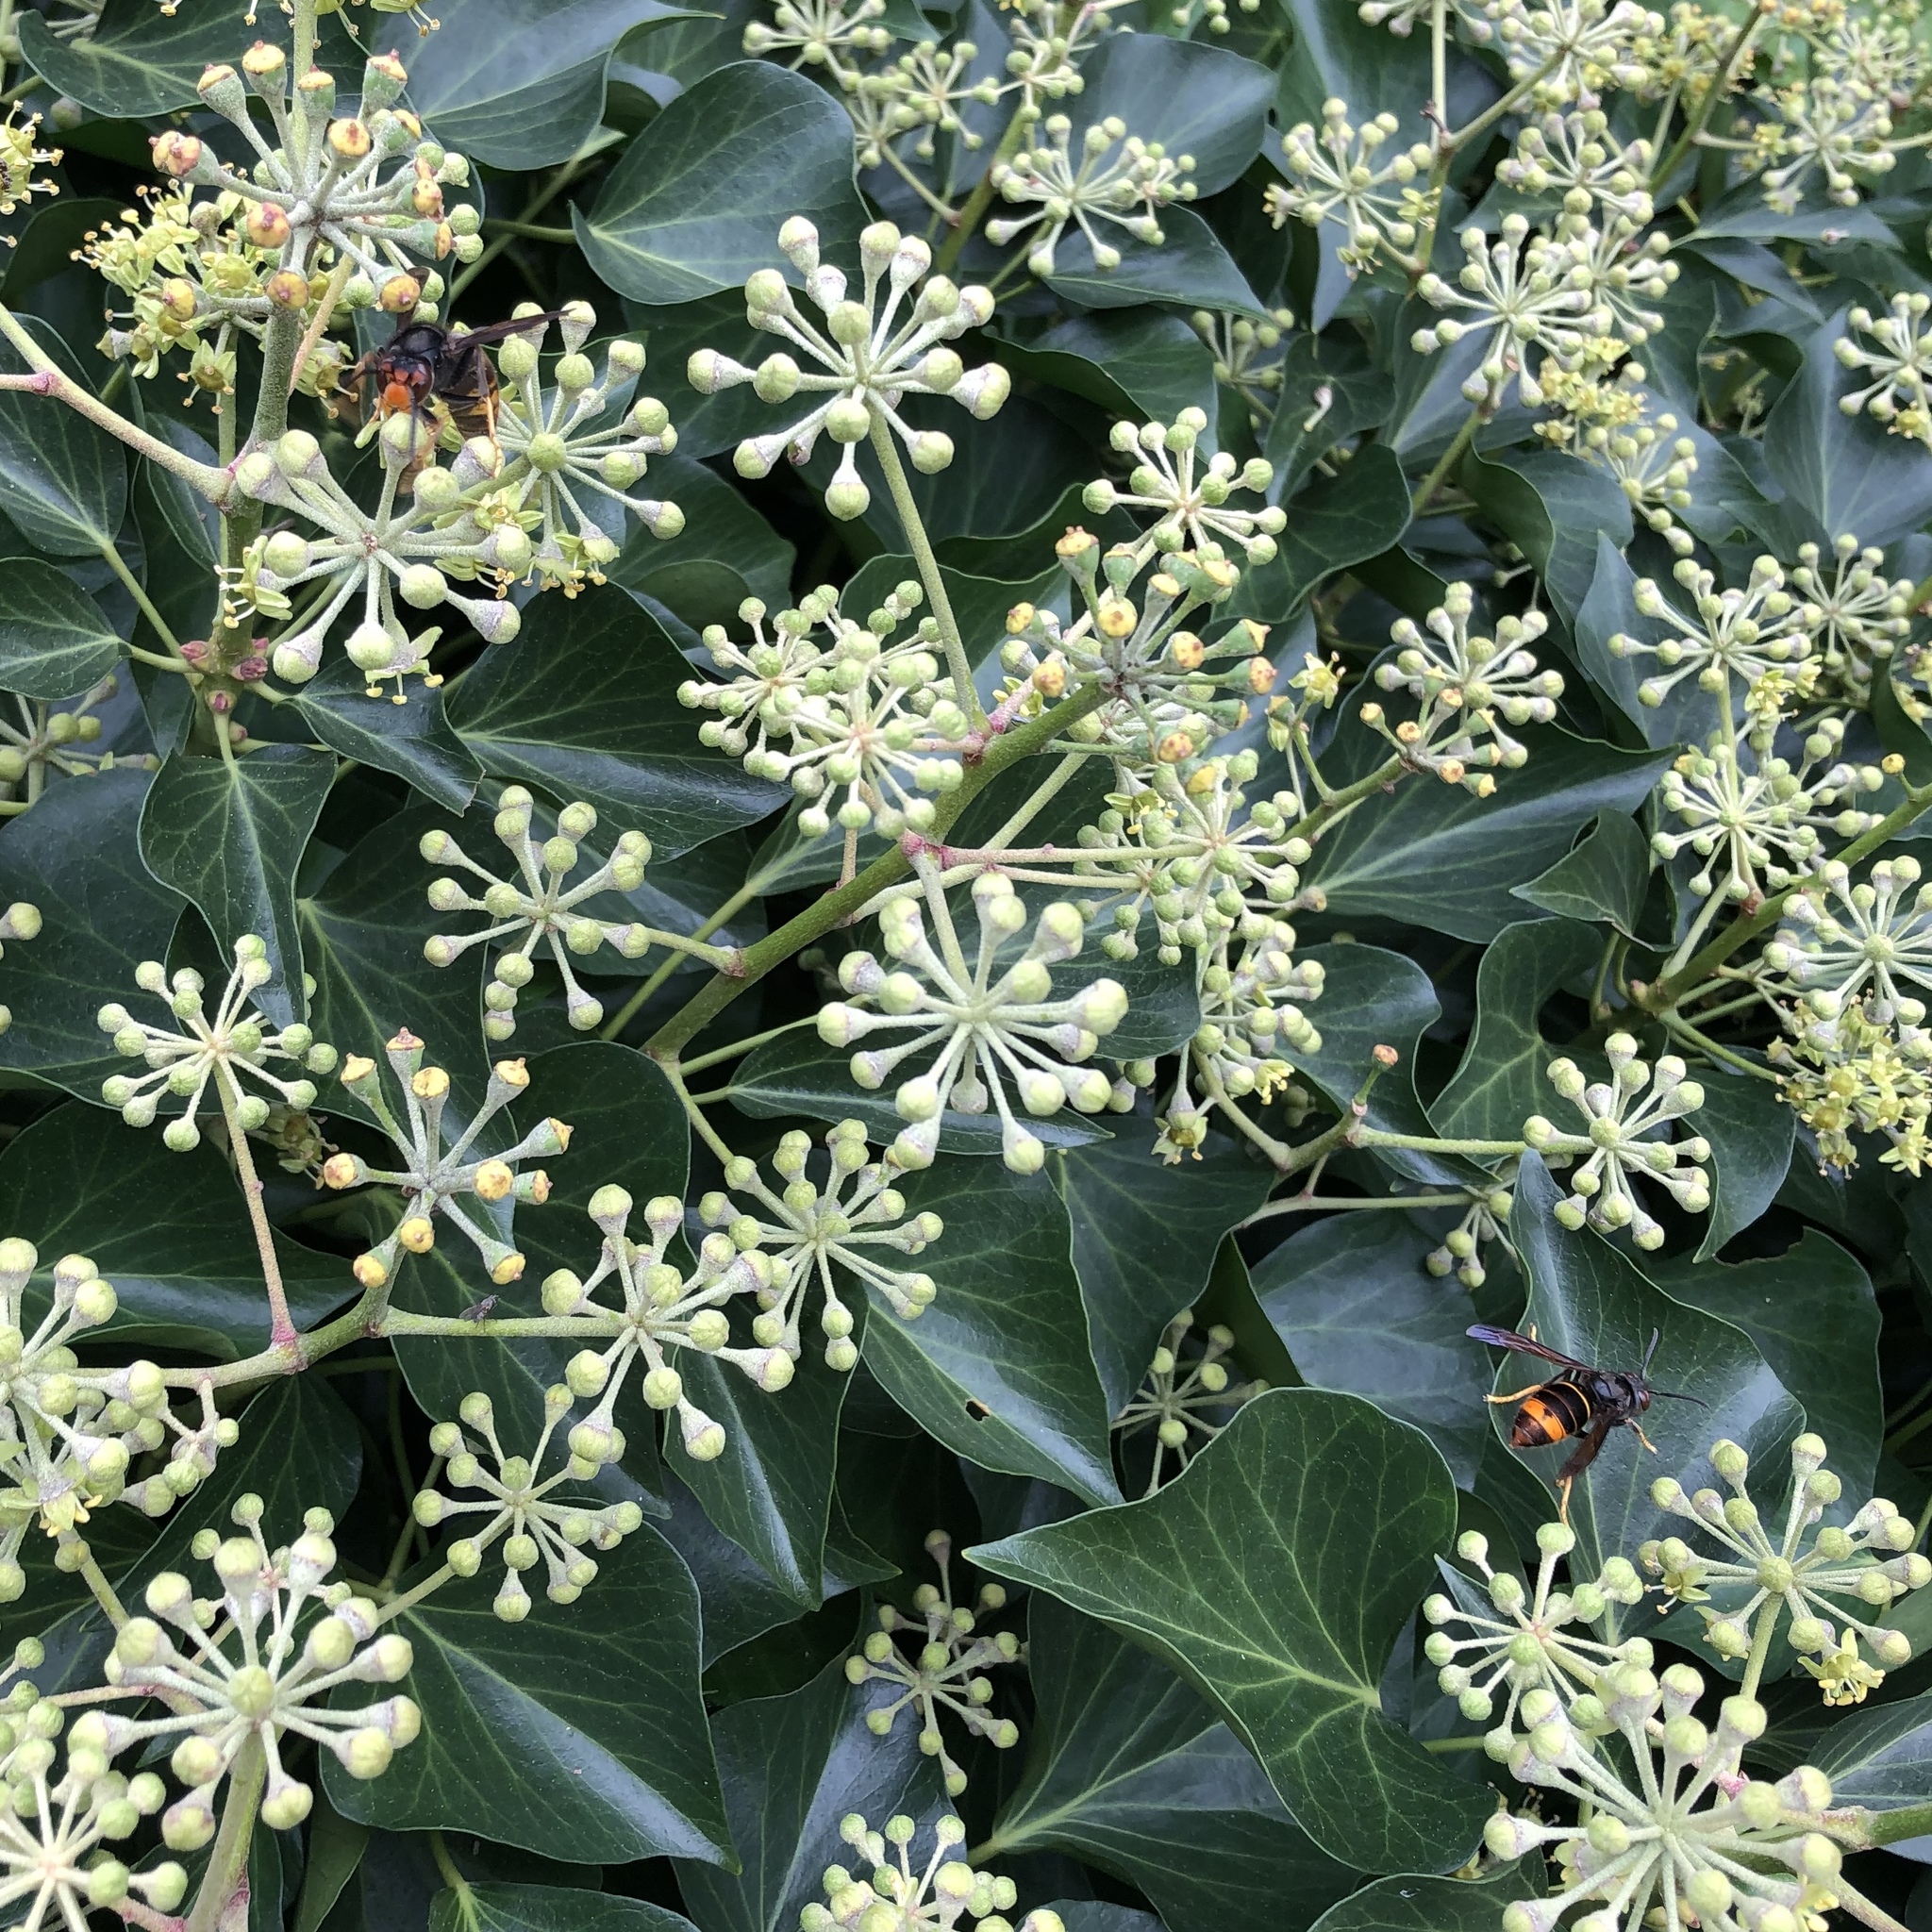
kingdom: Animalia
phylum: Arthropoda
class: Insecta
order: Hymenoptera
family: Vespidae
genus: Vespa
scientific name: Vespa velutina
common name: Asian hornet
